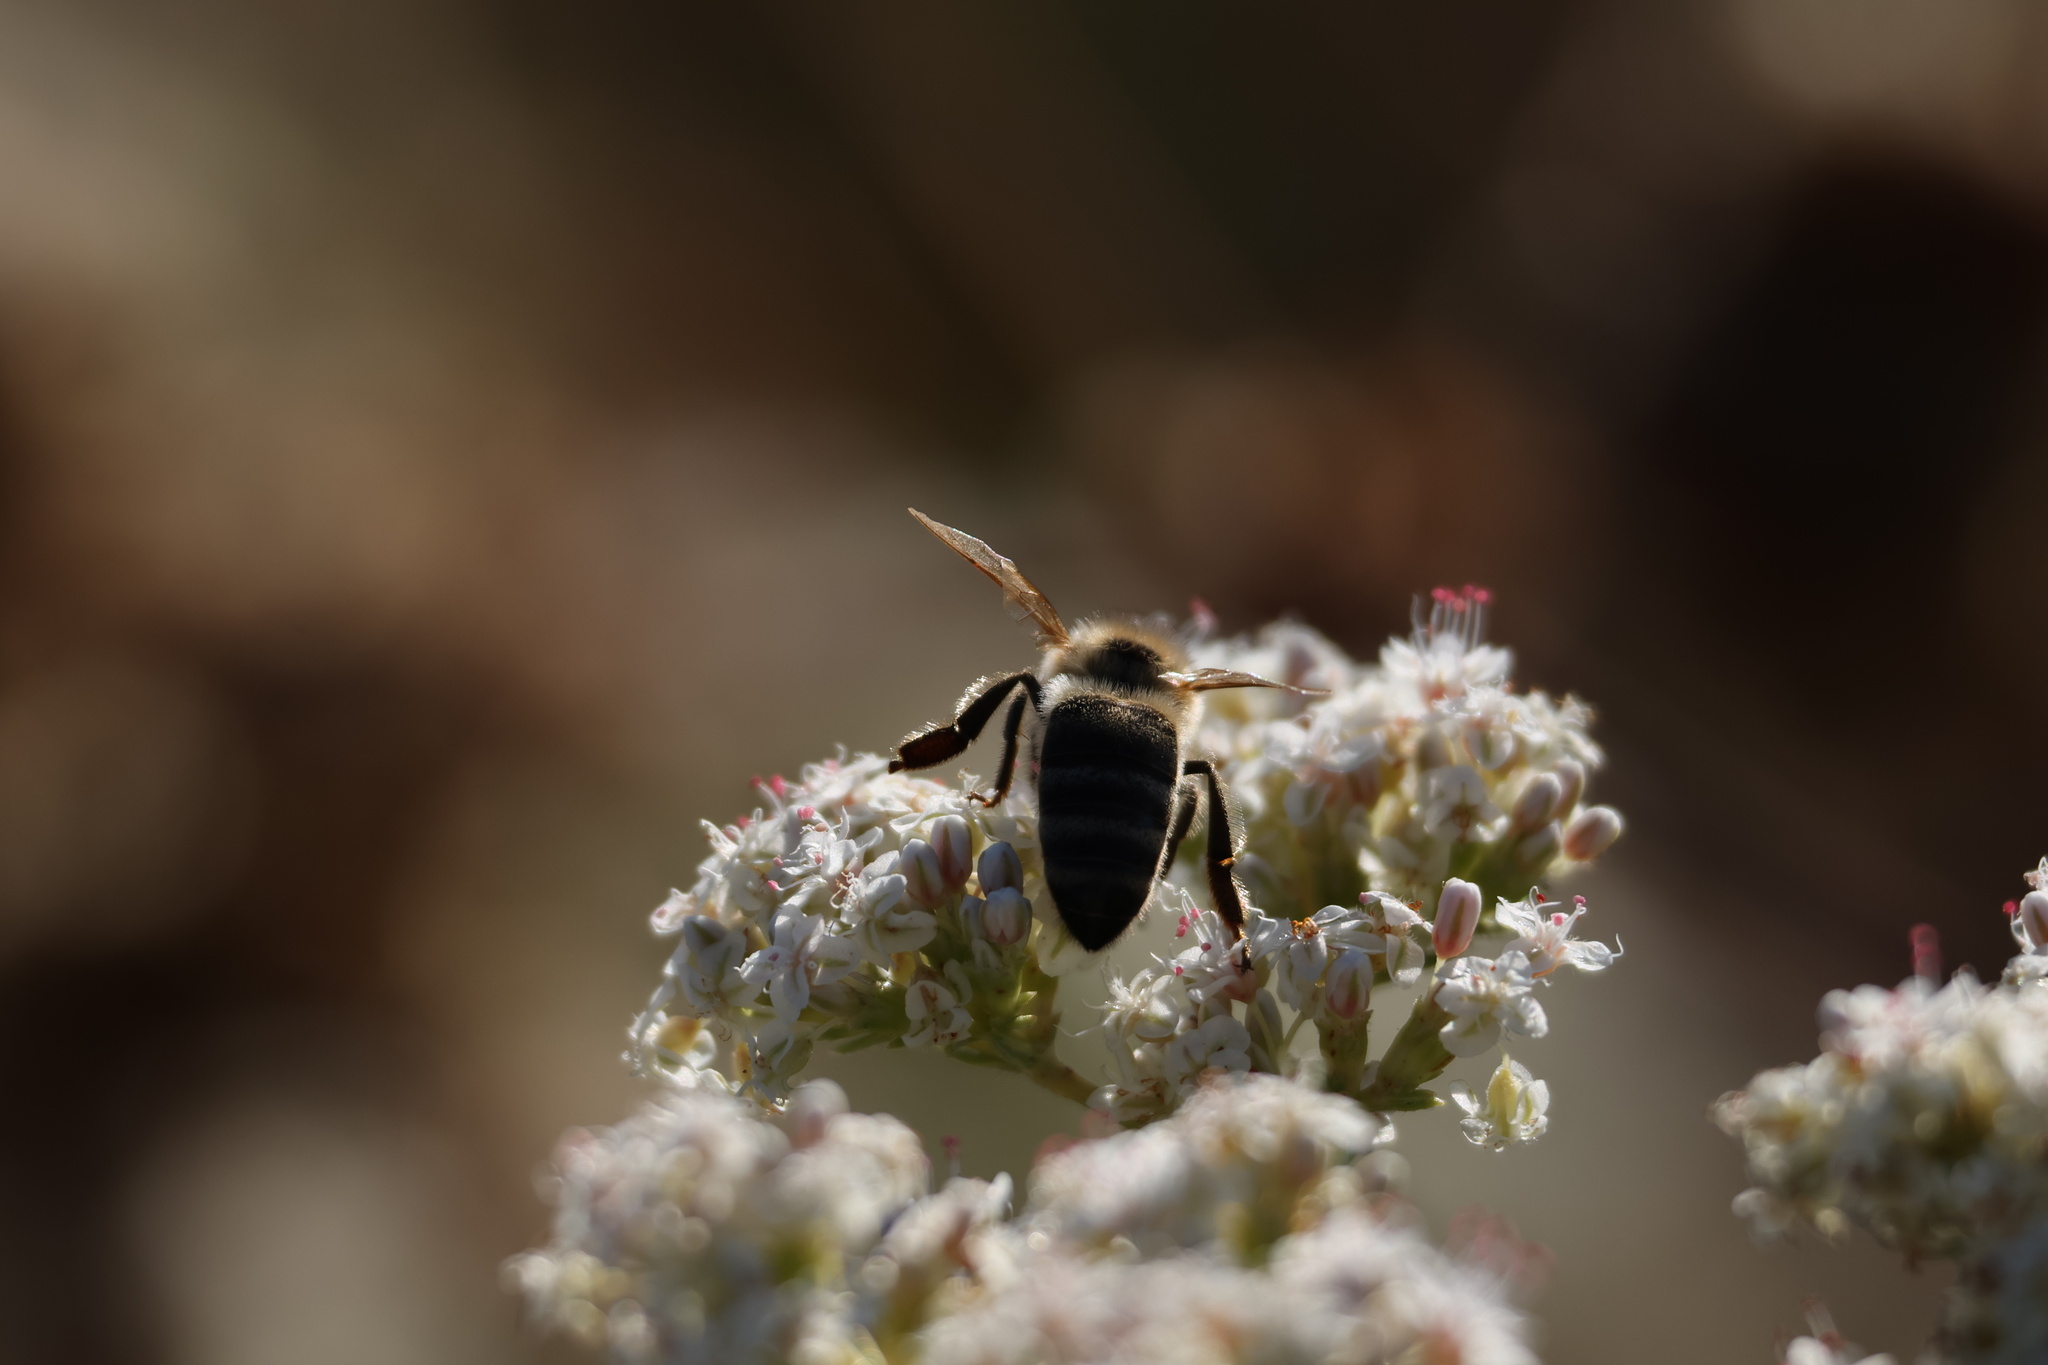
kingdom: Animalia
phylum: Arthropoda
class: Insecta
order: Hymenoptera
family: Apidae
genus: Apis
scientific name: Apis mellifera
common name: Honey bee
